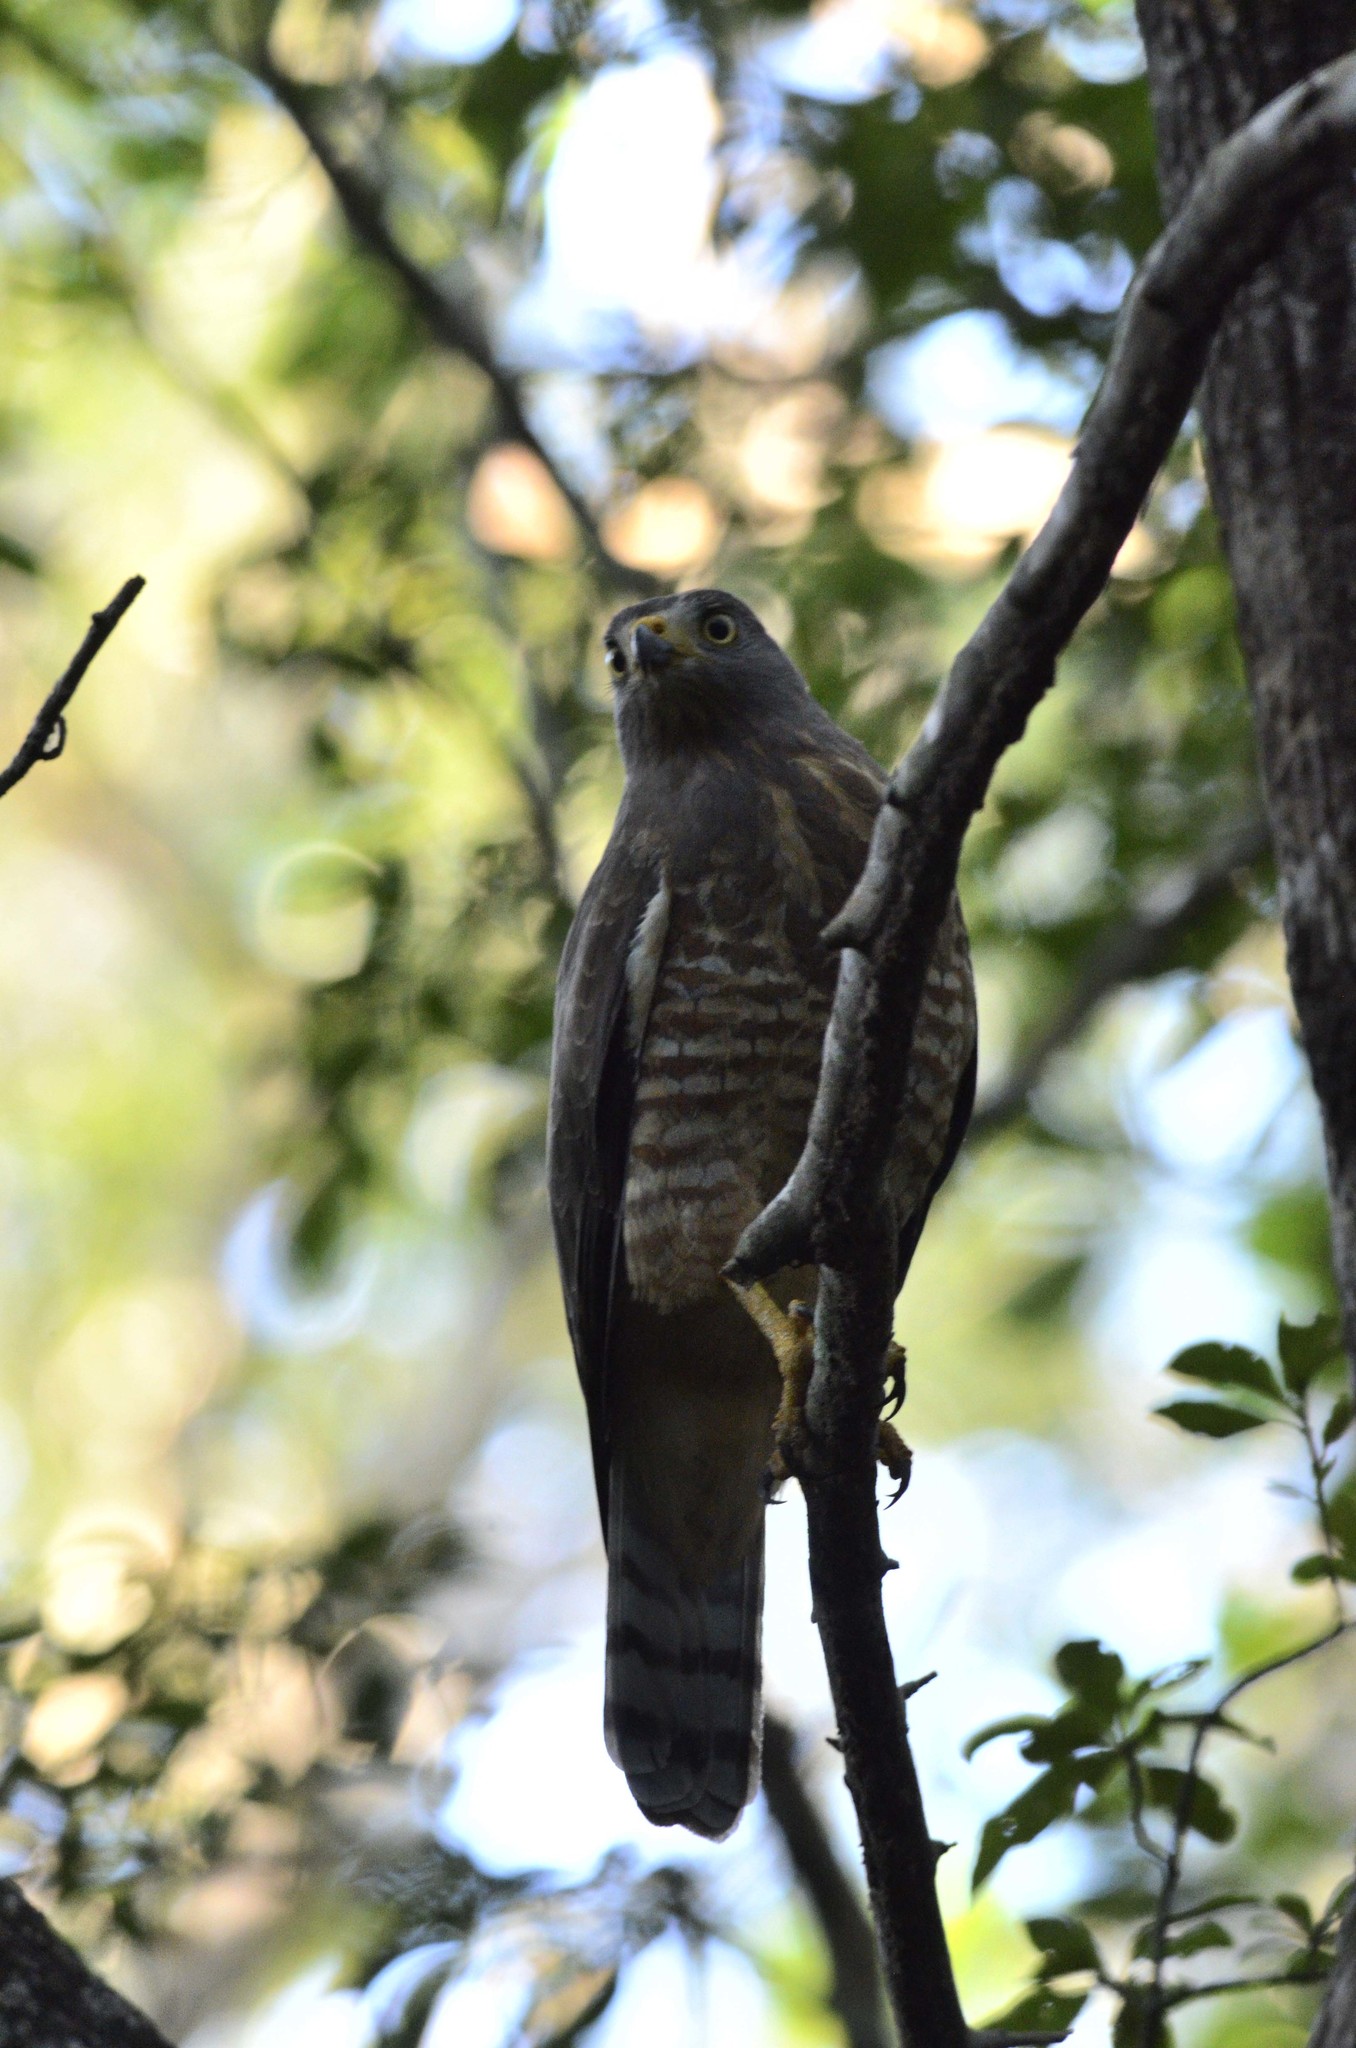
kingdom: Animalia
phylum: Chordata
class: Aves
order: Accipitriformes
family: Accipitridae
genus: Rupornis
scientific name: Rupornis magnirostris
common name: Roadside hawk
